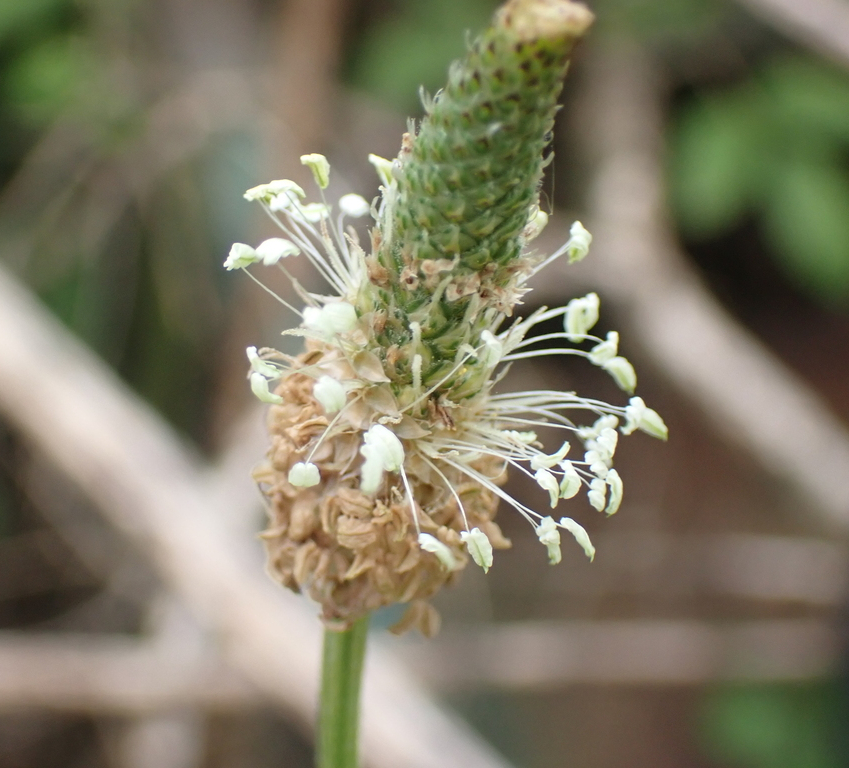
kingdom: Plantae
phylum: Tracheophyta
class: Magnoliopsida
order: Lamiales
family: Plantaginaceae
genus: Plantago
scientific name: Plantago lanceolata
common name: Ribwort plantain
